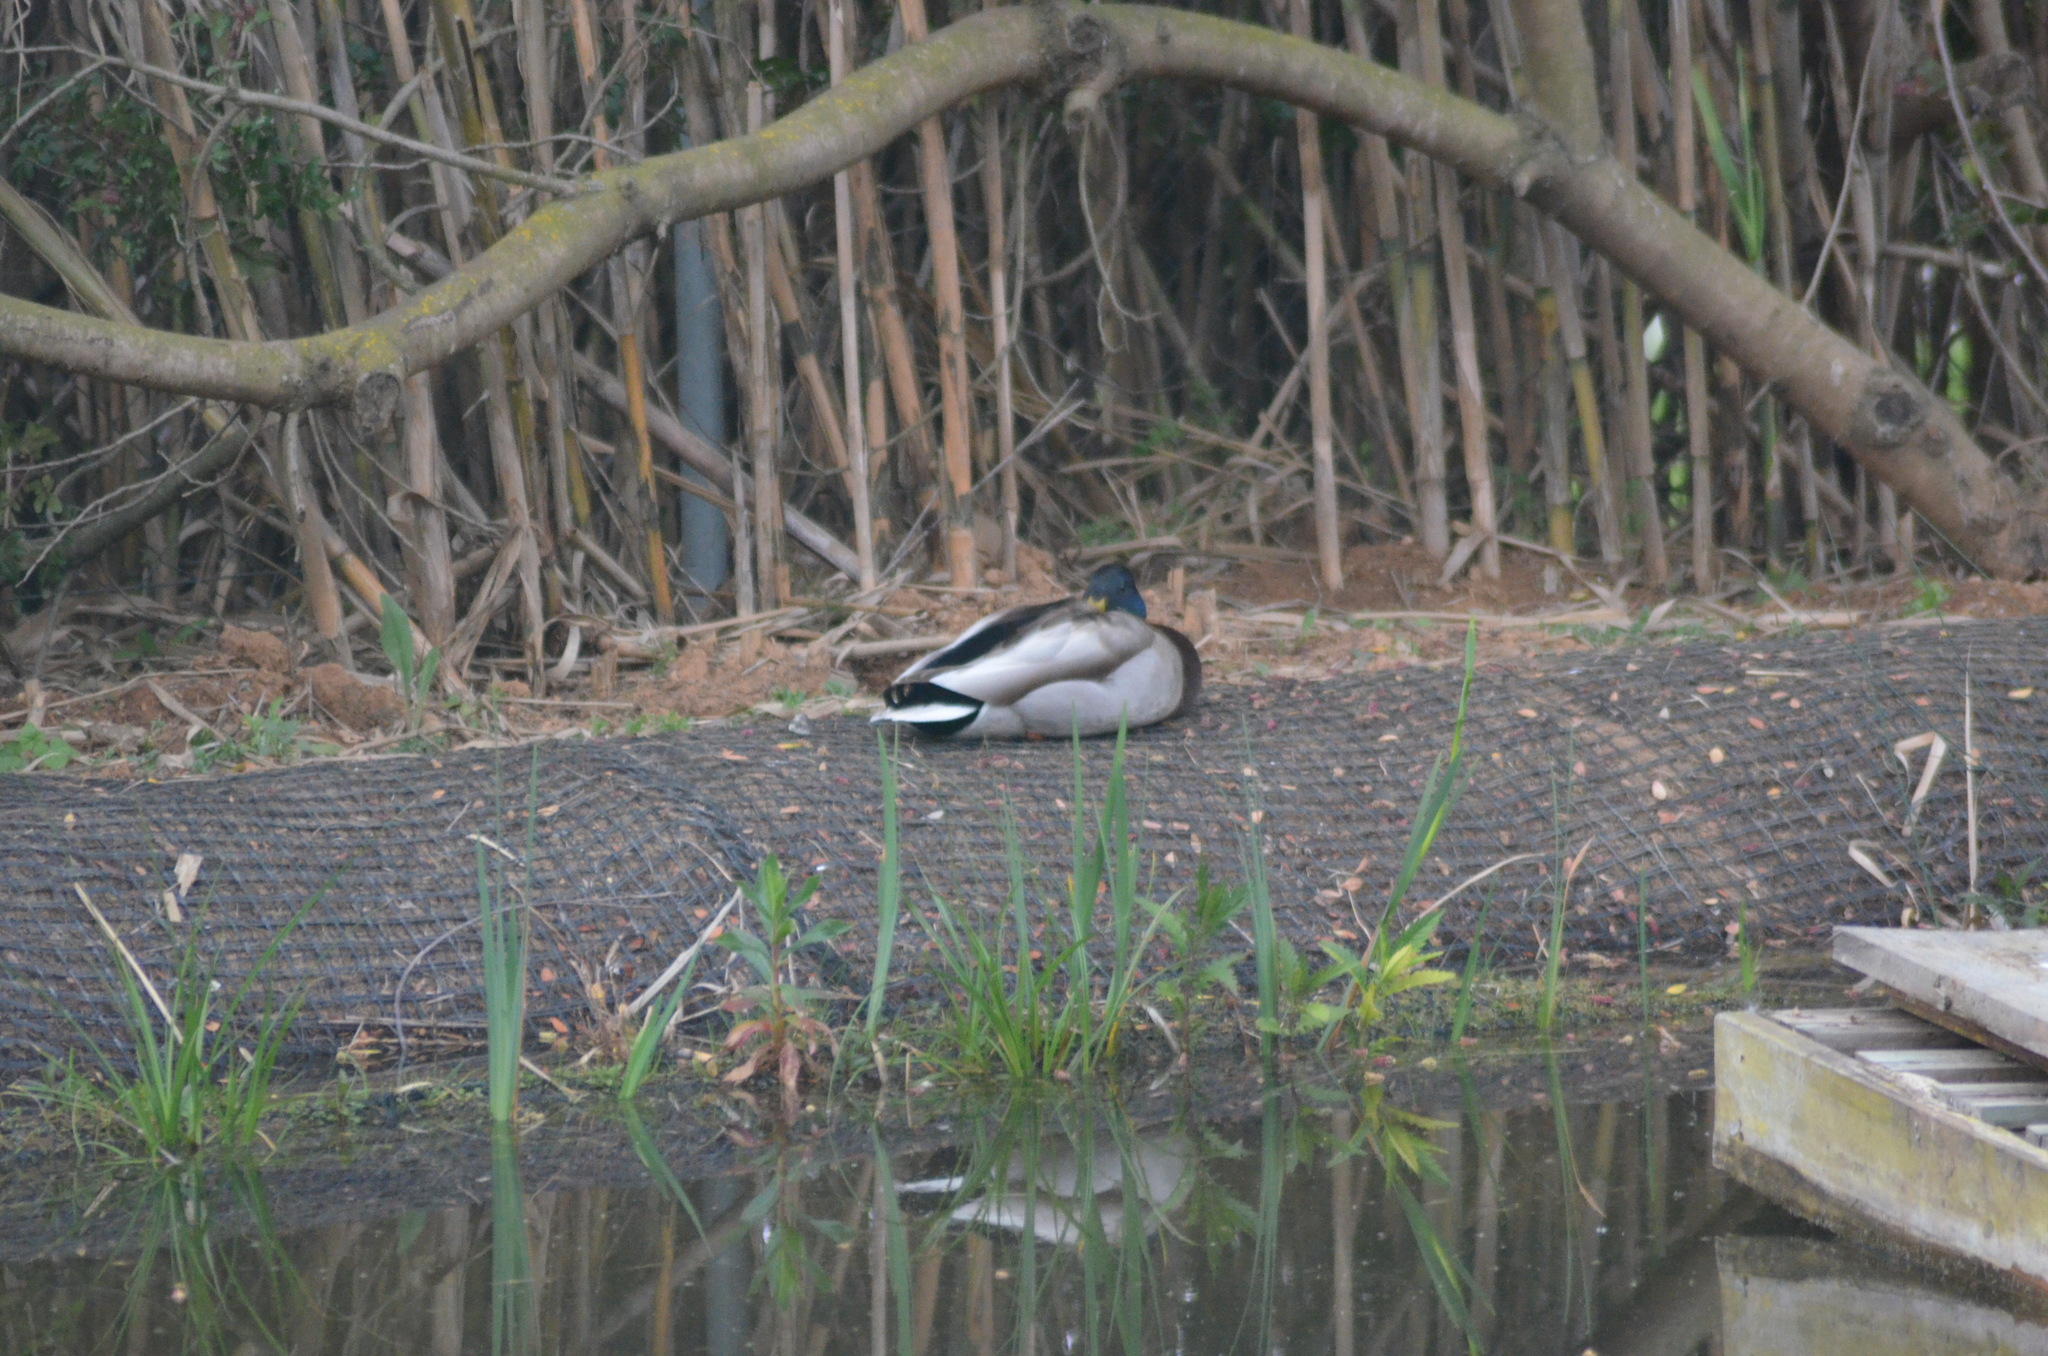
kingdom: Animalia
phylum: Chordata
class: Aves
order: Anseriformes
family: Anatidae
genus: Anas
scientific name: Anas platyrhynchos
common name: Mallard
